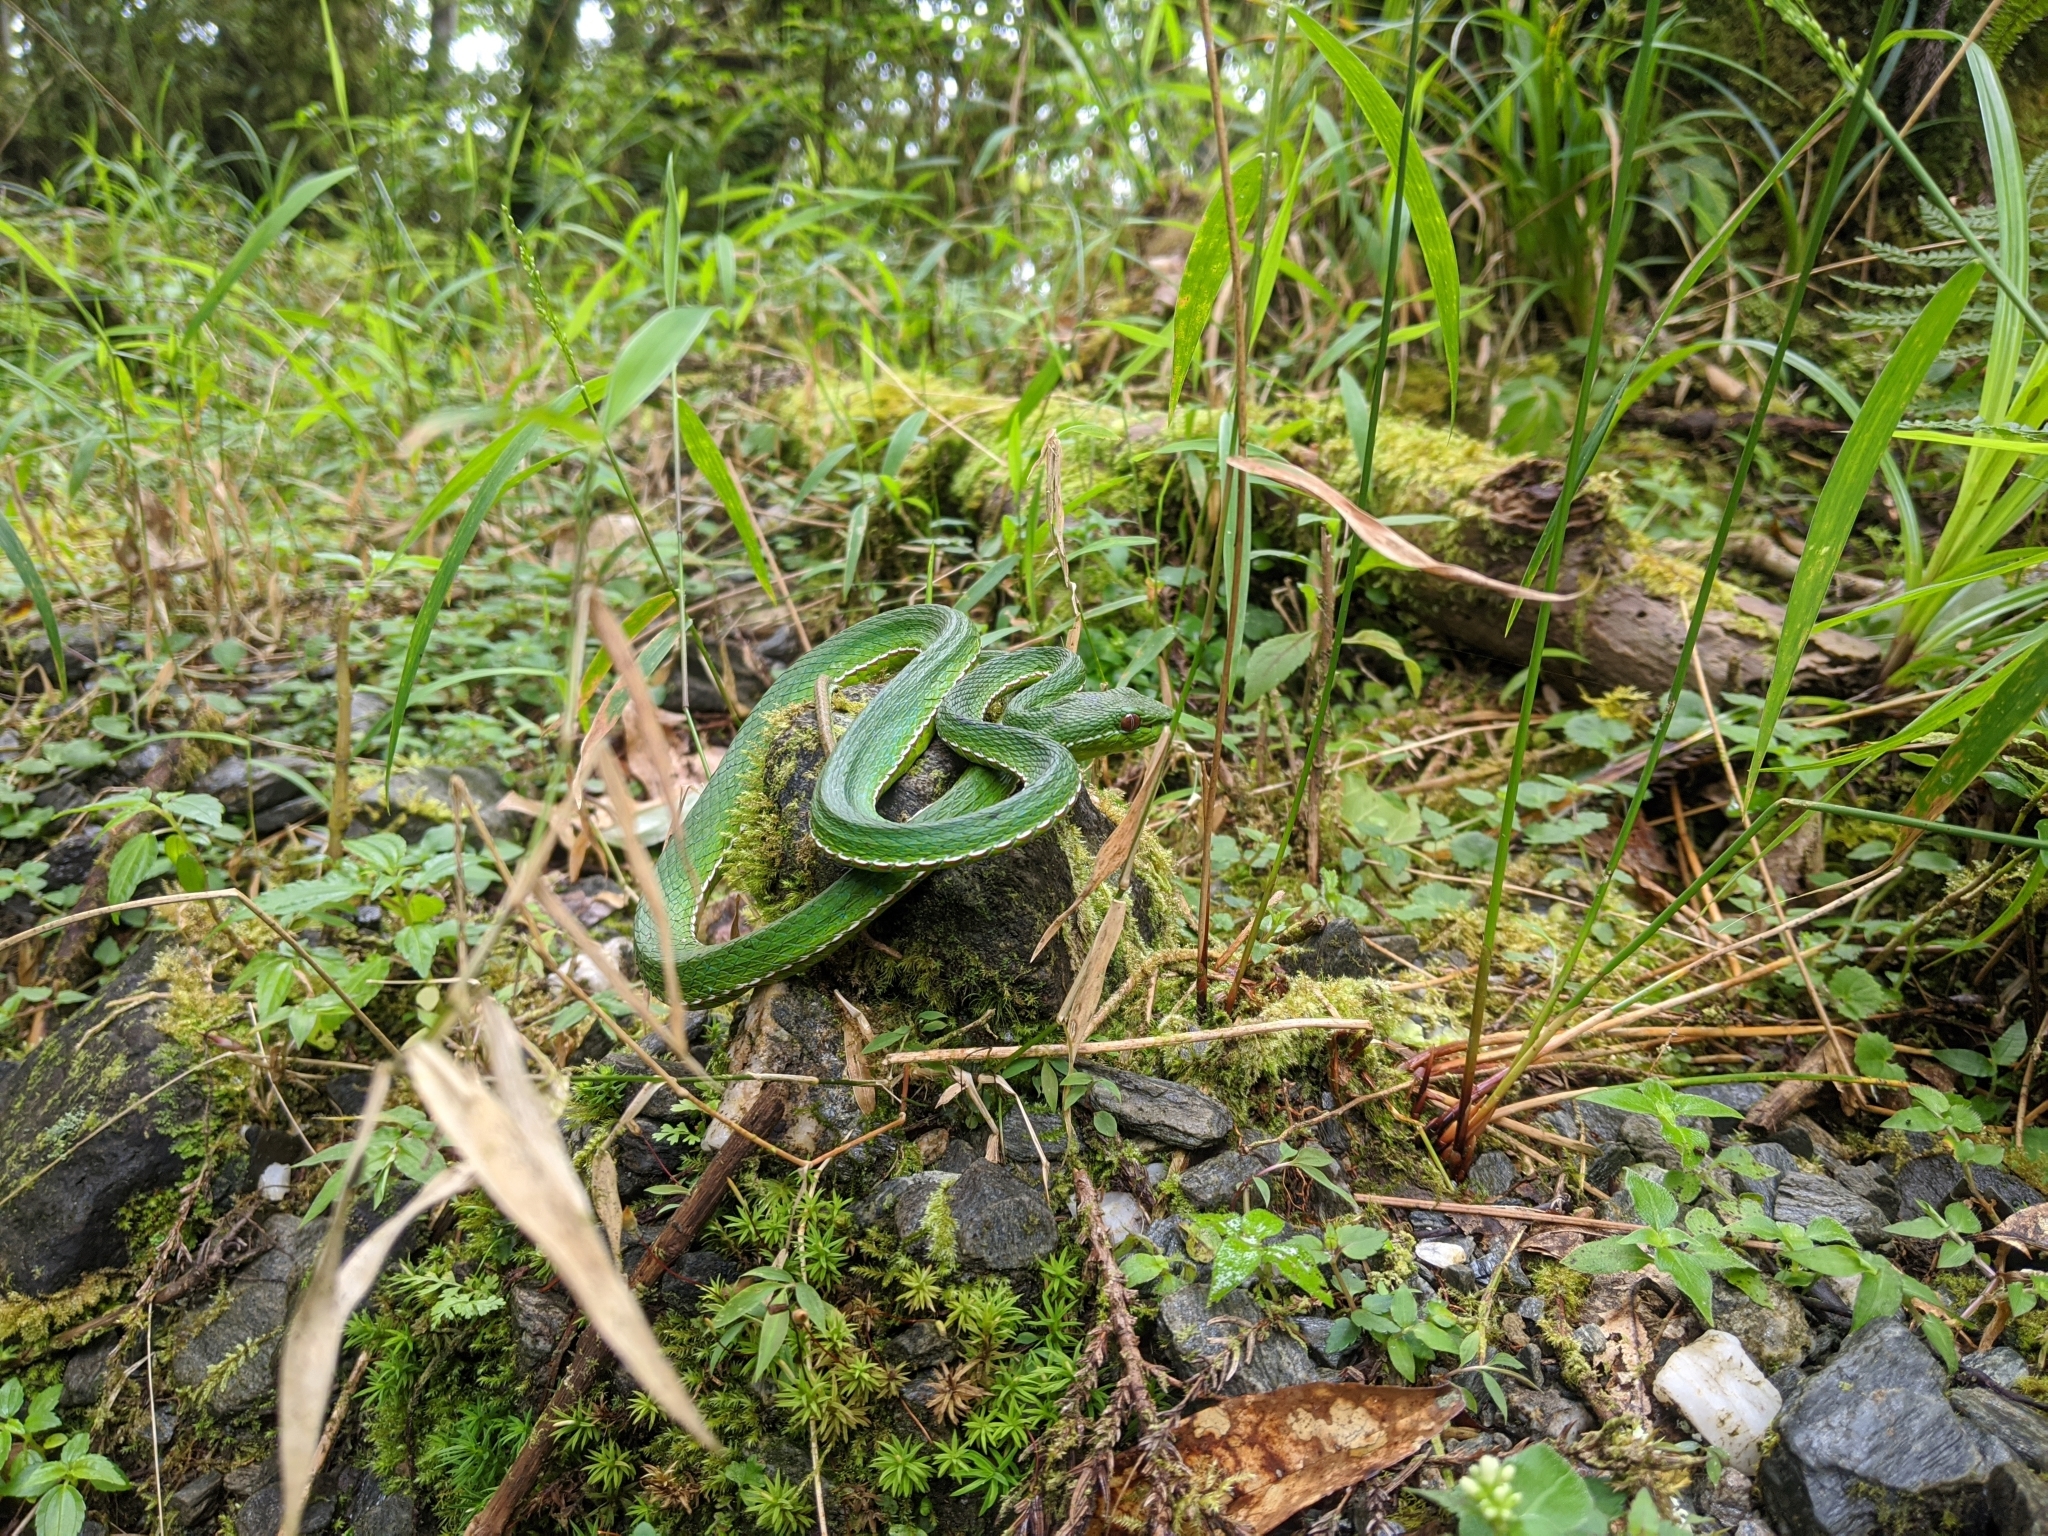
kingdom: Animalia
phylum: Chordata
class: Squamata
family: Viperidae
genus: Trimeresurus
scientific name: Trimeresurus stejnegeri
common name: Chen’s bamboo pit viper
